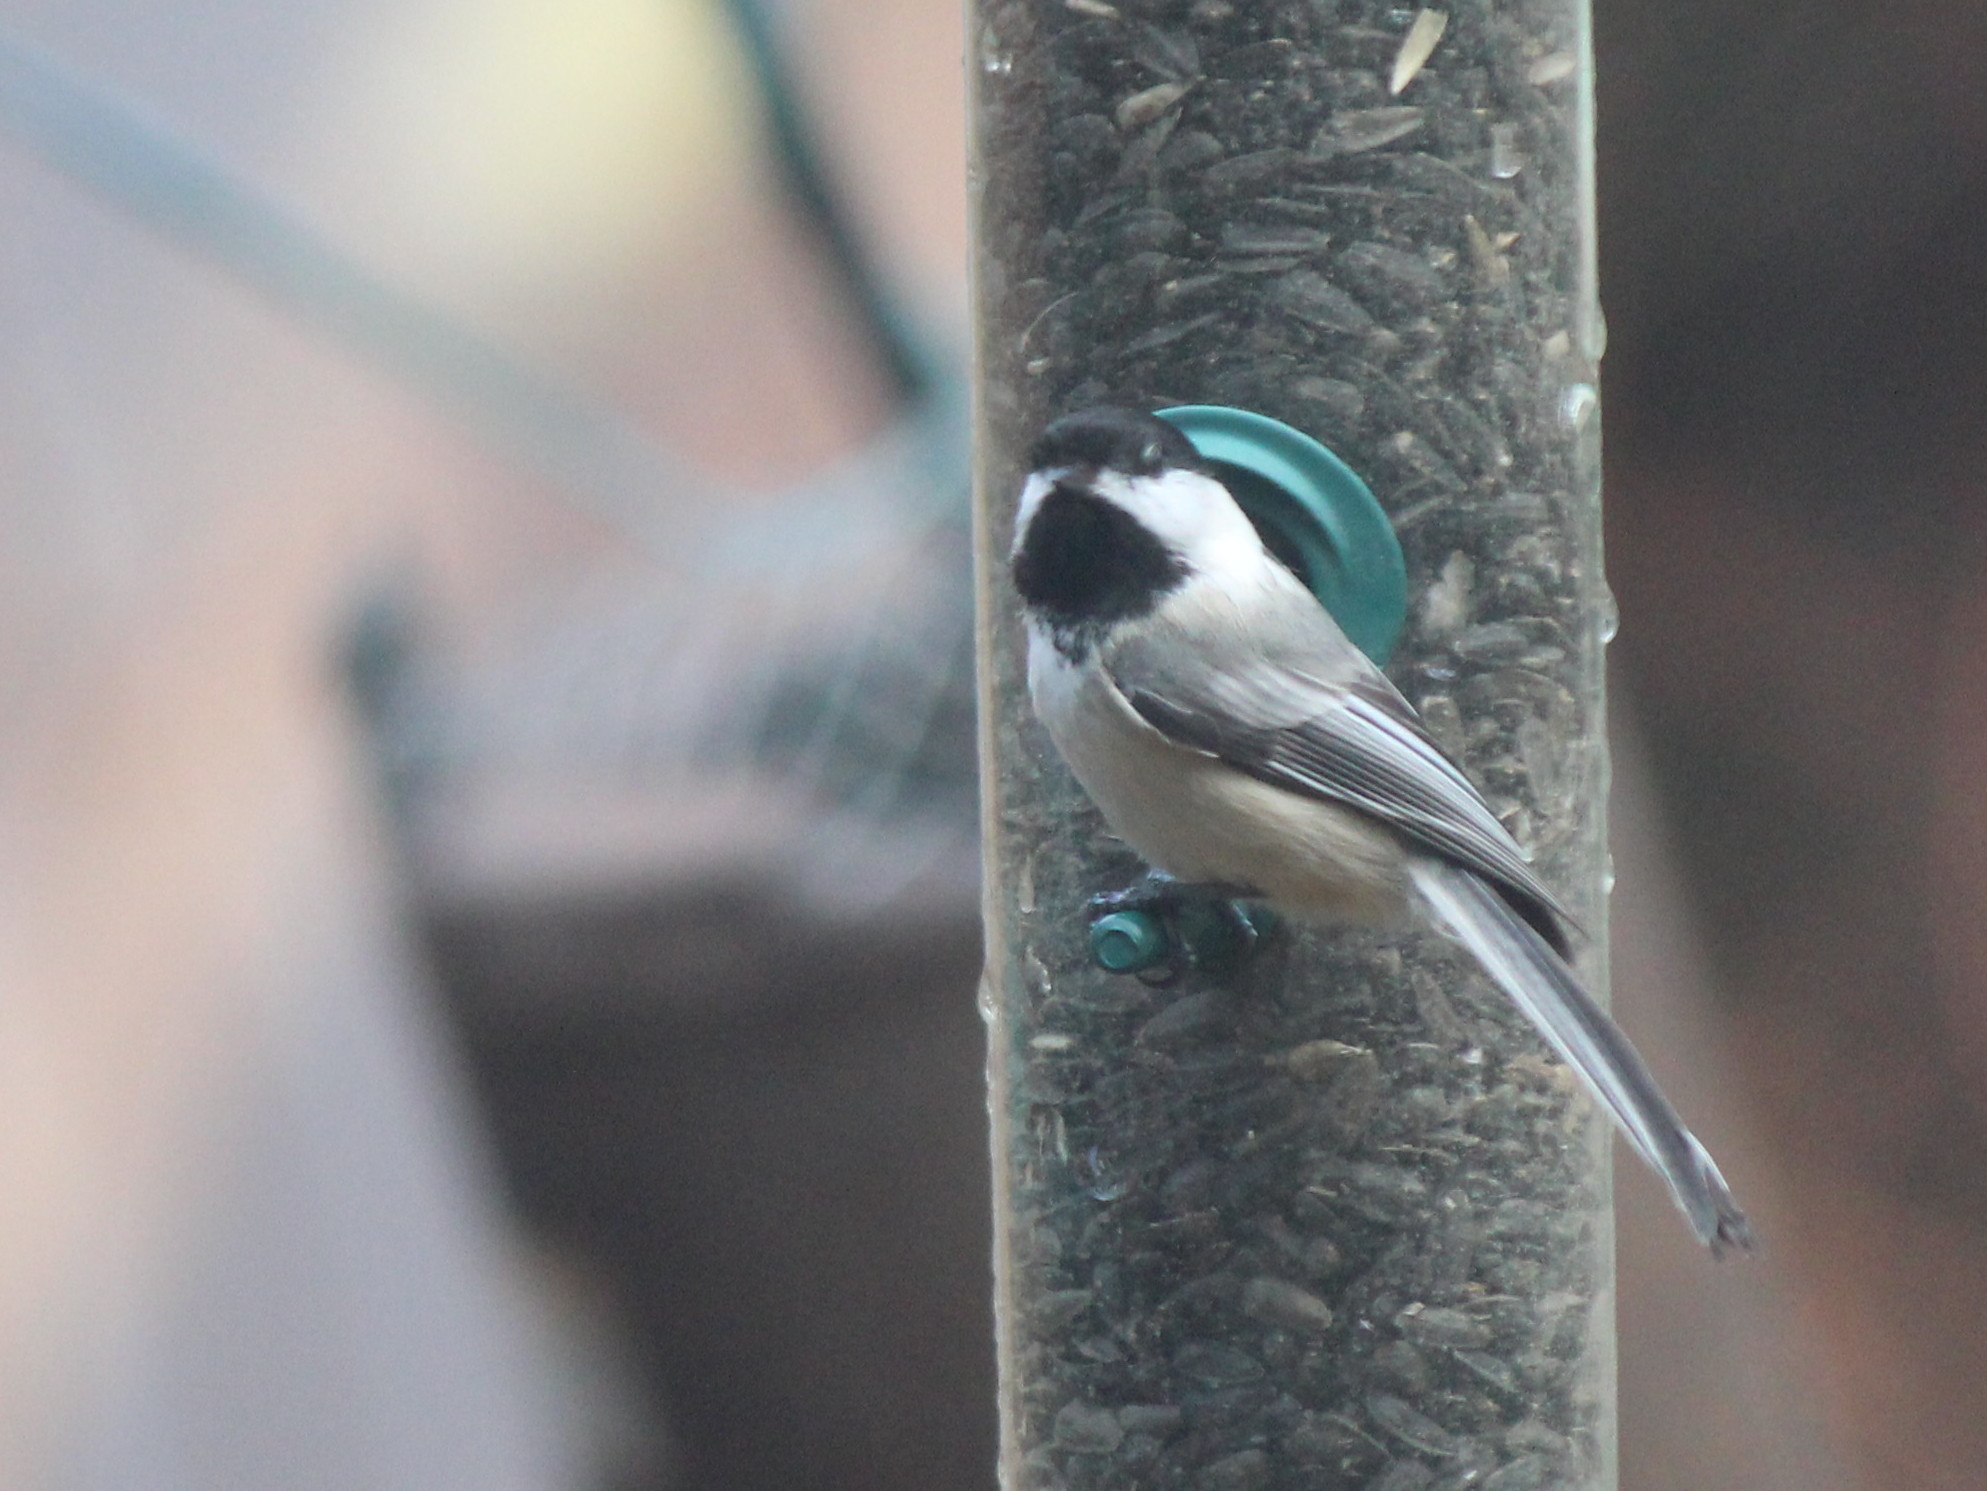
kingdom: Animalia
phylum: Chordata
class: Aves
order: Passeriformes
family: Paridae
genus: Poecile
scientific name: Poecile atricapillus
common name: Black-capped chickadee
